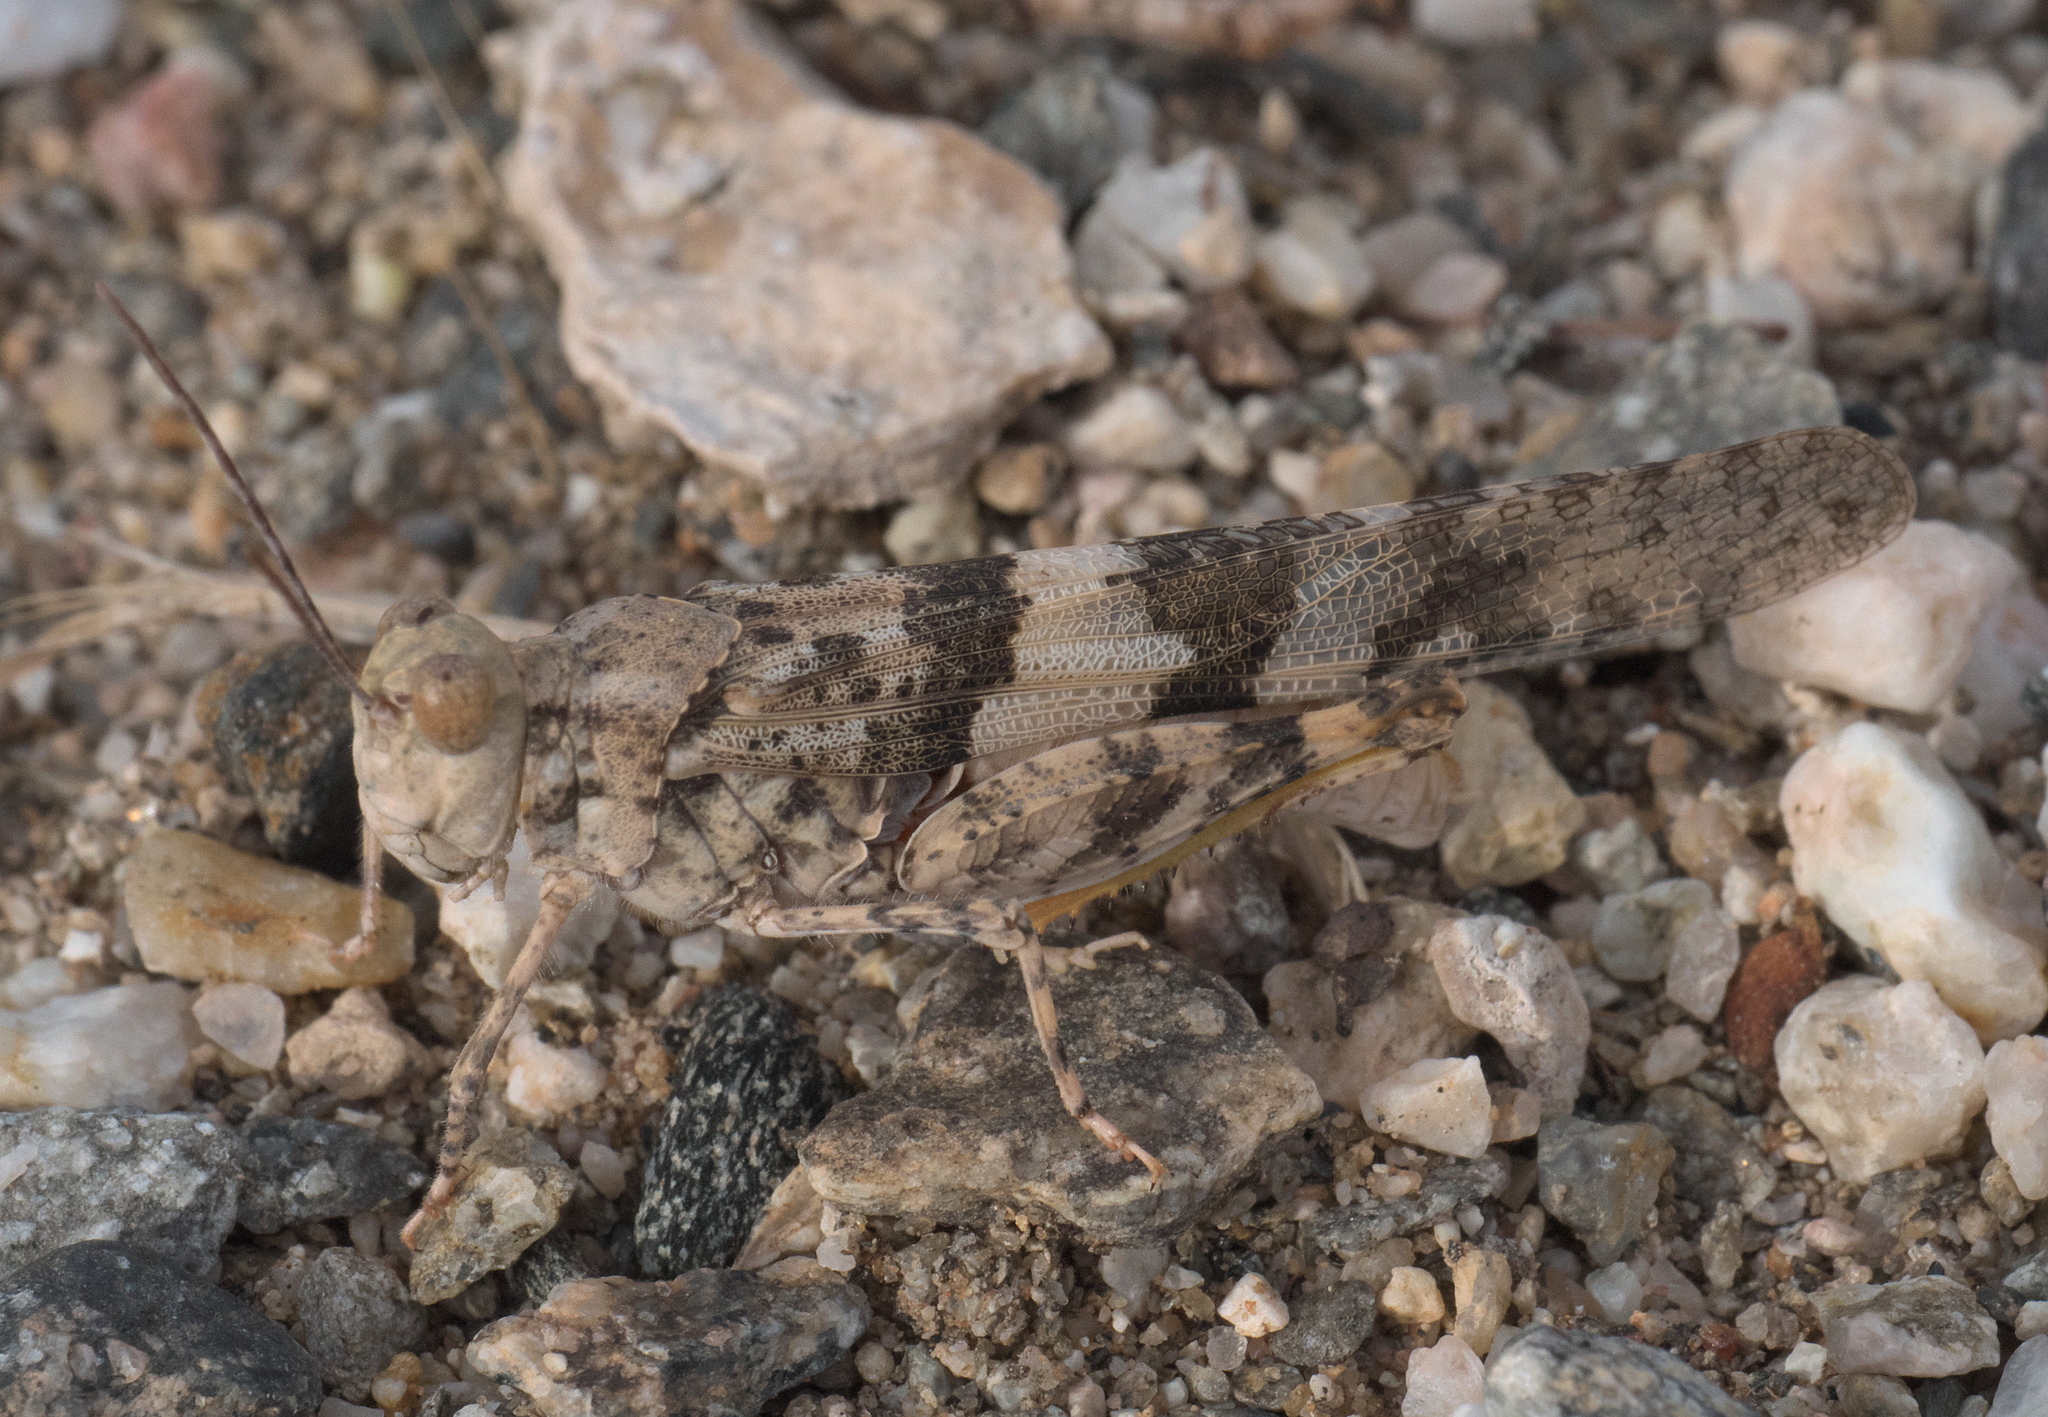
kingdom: Animalia
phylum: Arthropoda
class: Insecta
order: Orthoptera
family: Acrididae
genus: Trimerotropis
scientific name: Trimerotropis pallidipennis
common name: Pallid-winged grasshopper
